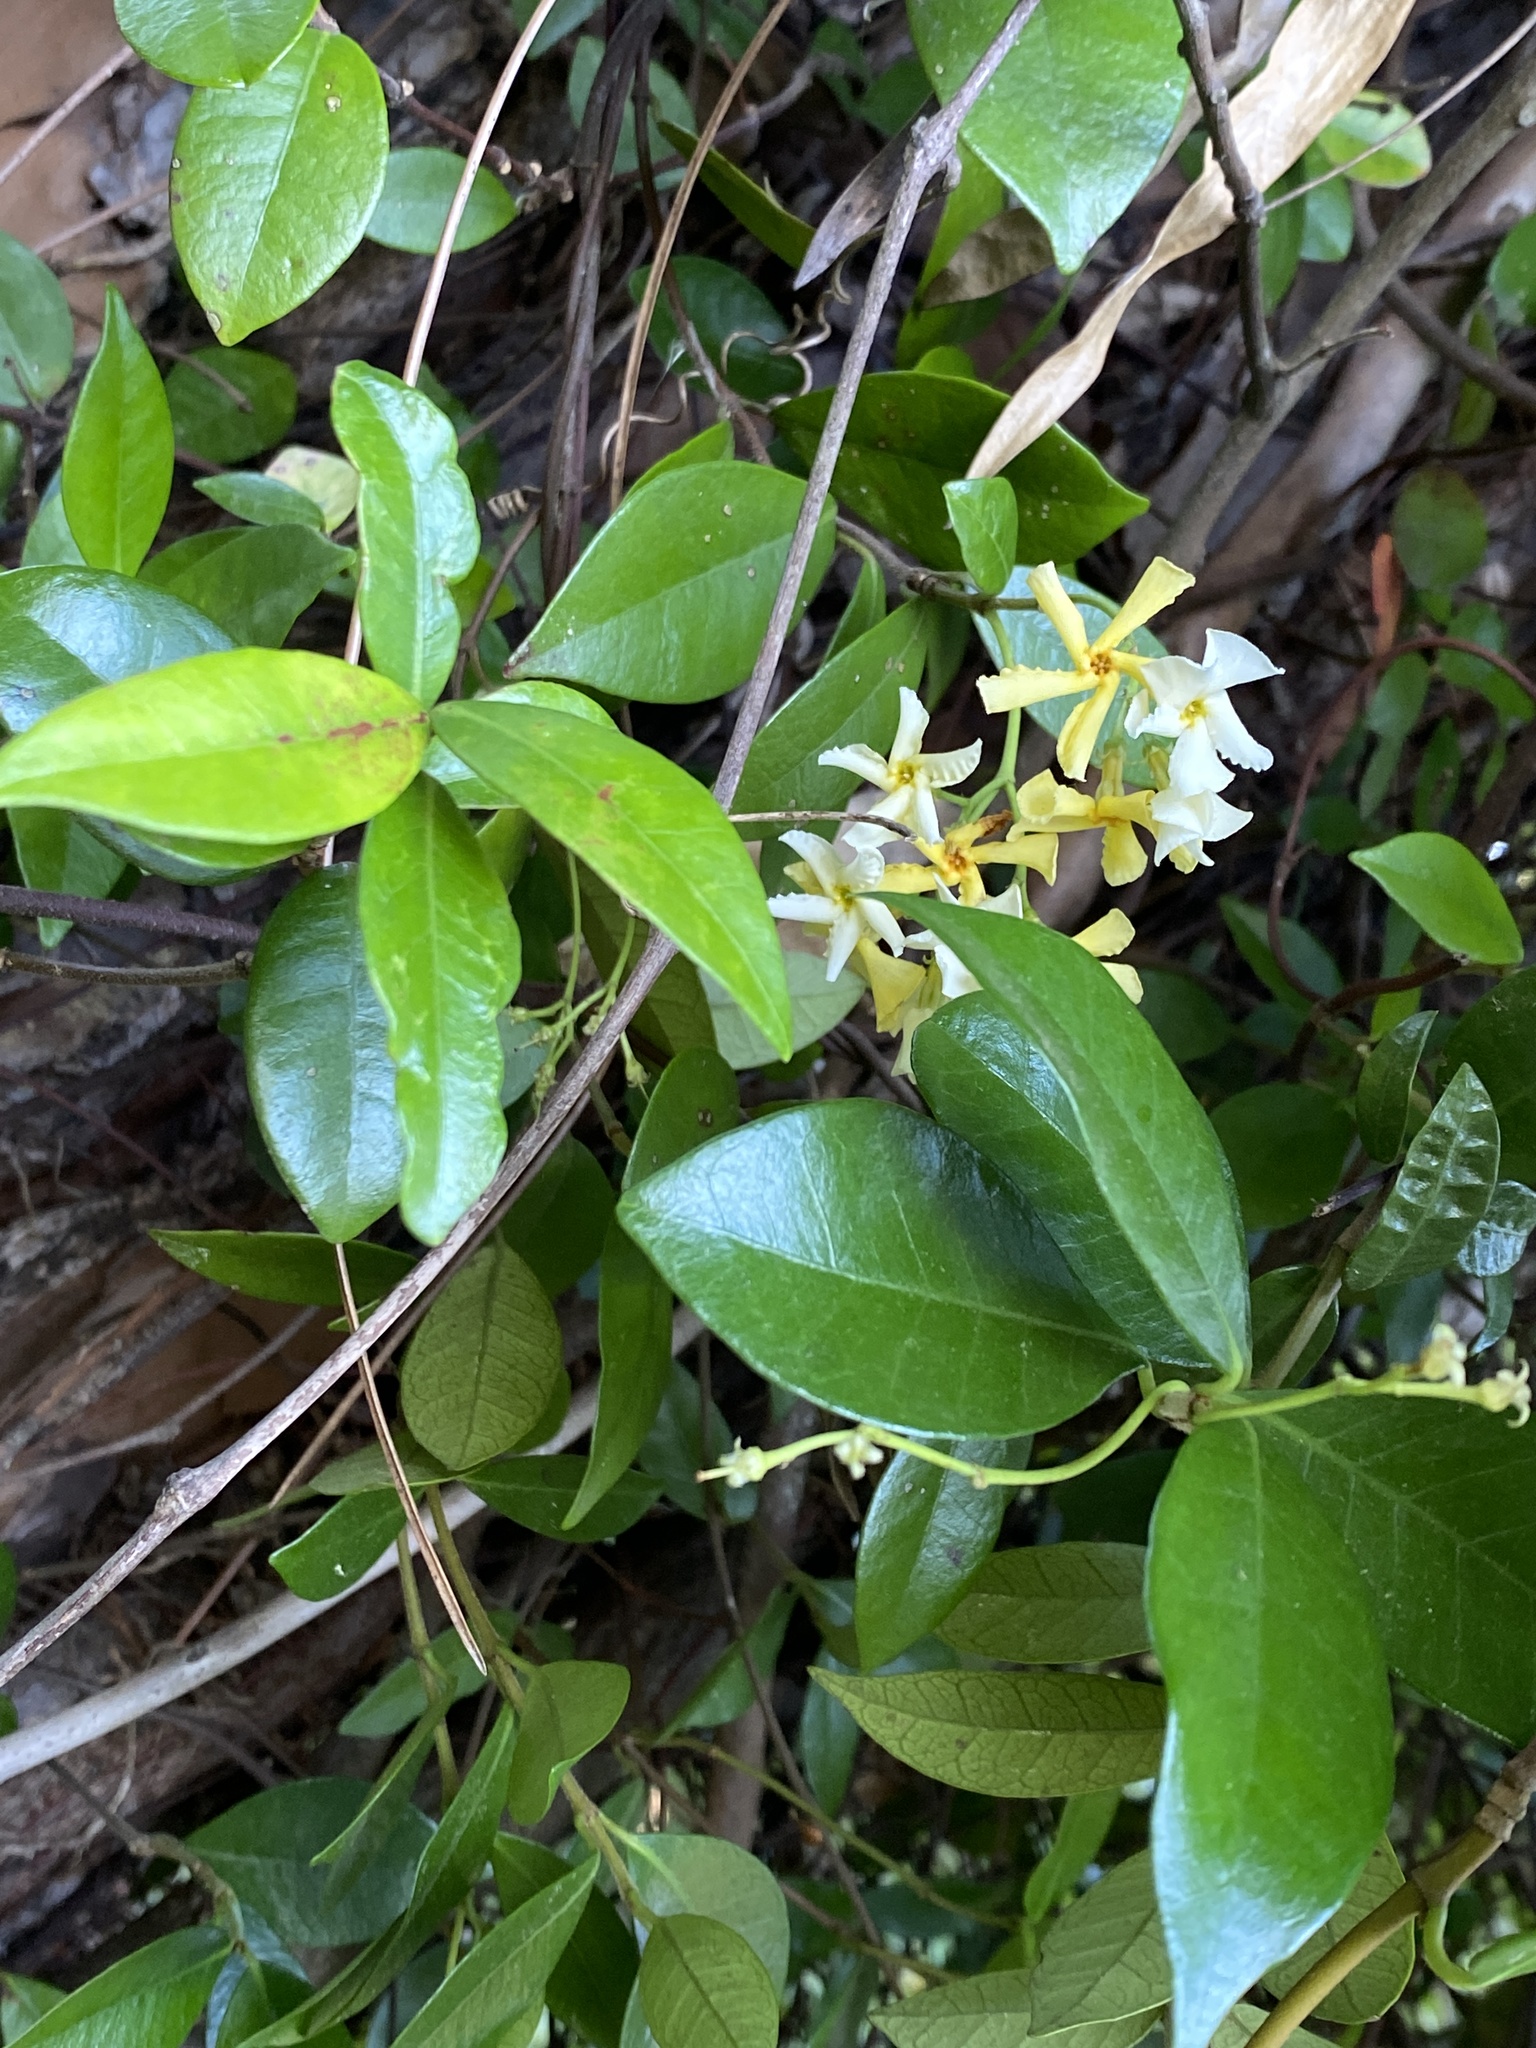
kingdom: Plantae
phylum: Tracheophyta
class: Magnoliopsida
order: Gentianales
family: Apocynaceae
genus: Trachelospermum
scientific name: Trachelospermum jasminoides
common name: Confederate jasmine
